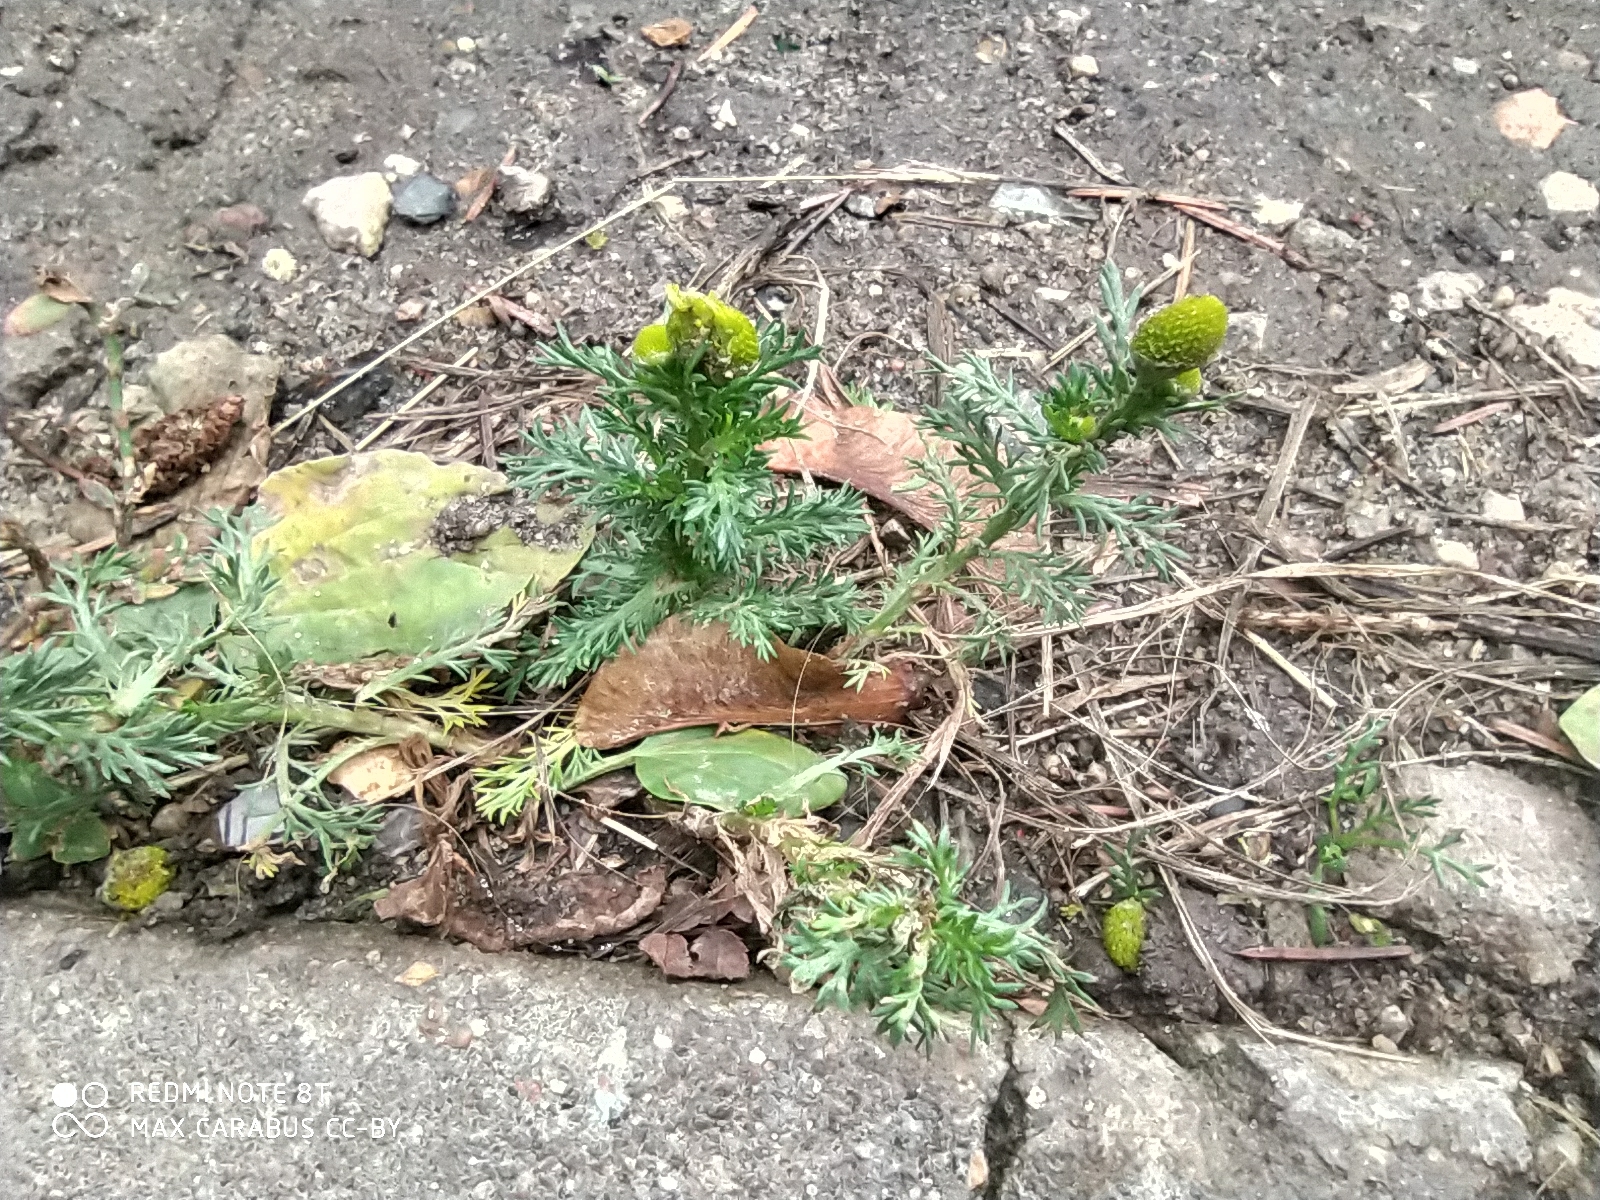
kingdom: Plantae
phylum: Tracheophyta
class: Magnoliopsida
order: Asterales
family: Asteraceae
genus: Matricaria
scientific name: Matricaria discoidea
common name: Disc mayweed
